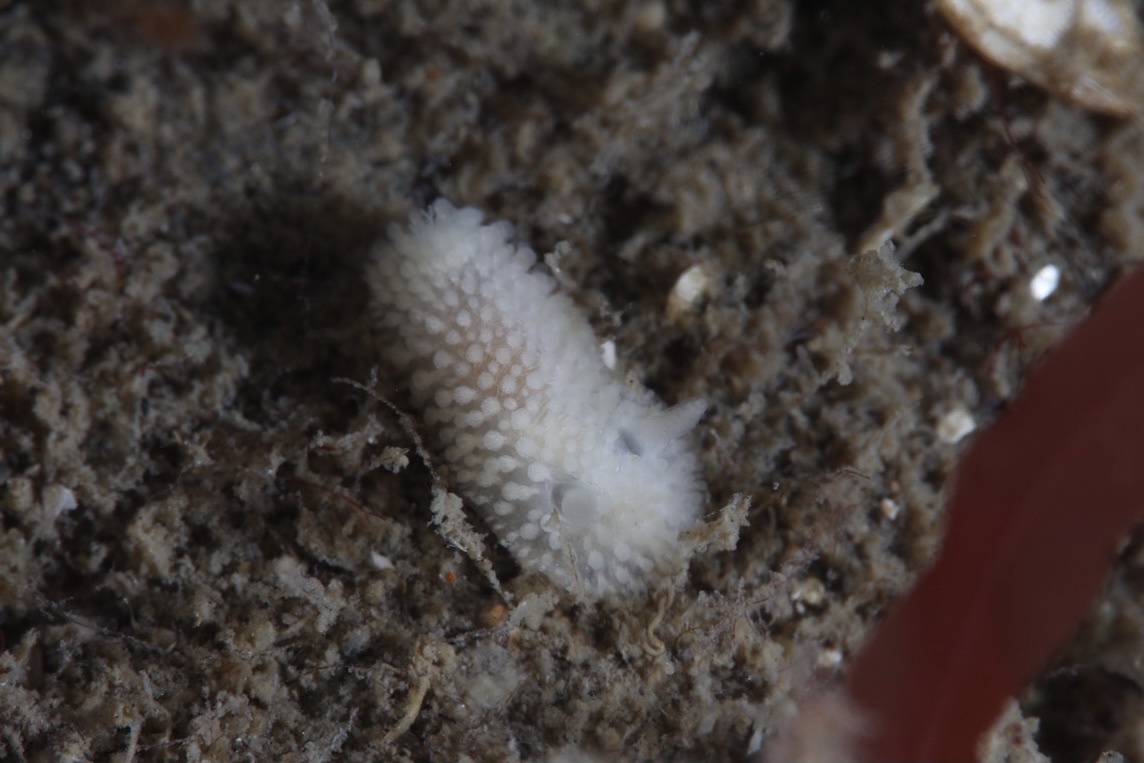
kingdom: Animalia
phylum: Mollusca
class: Gastropoda
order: Nudibranchia
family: Onchidorididae
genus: Onchidoris
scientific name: Onchidoris muricata
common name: Rough doris
